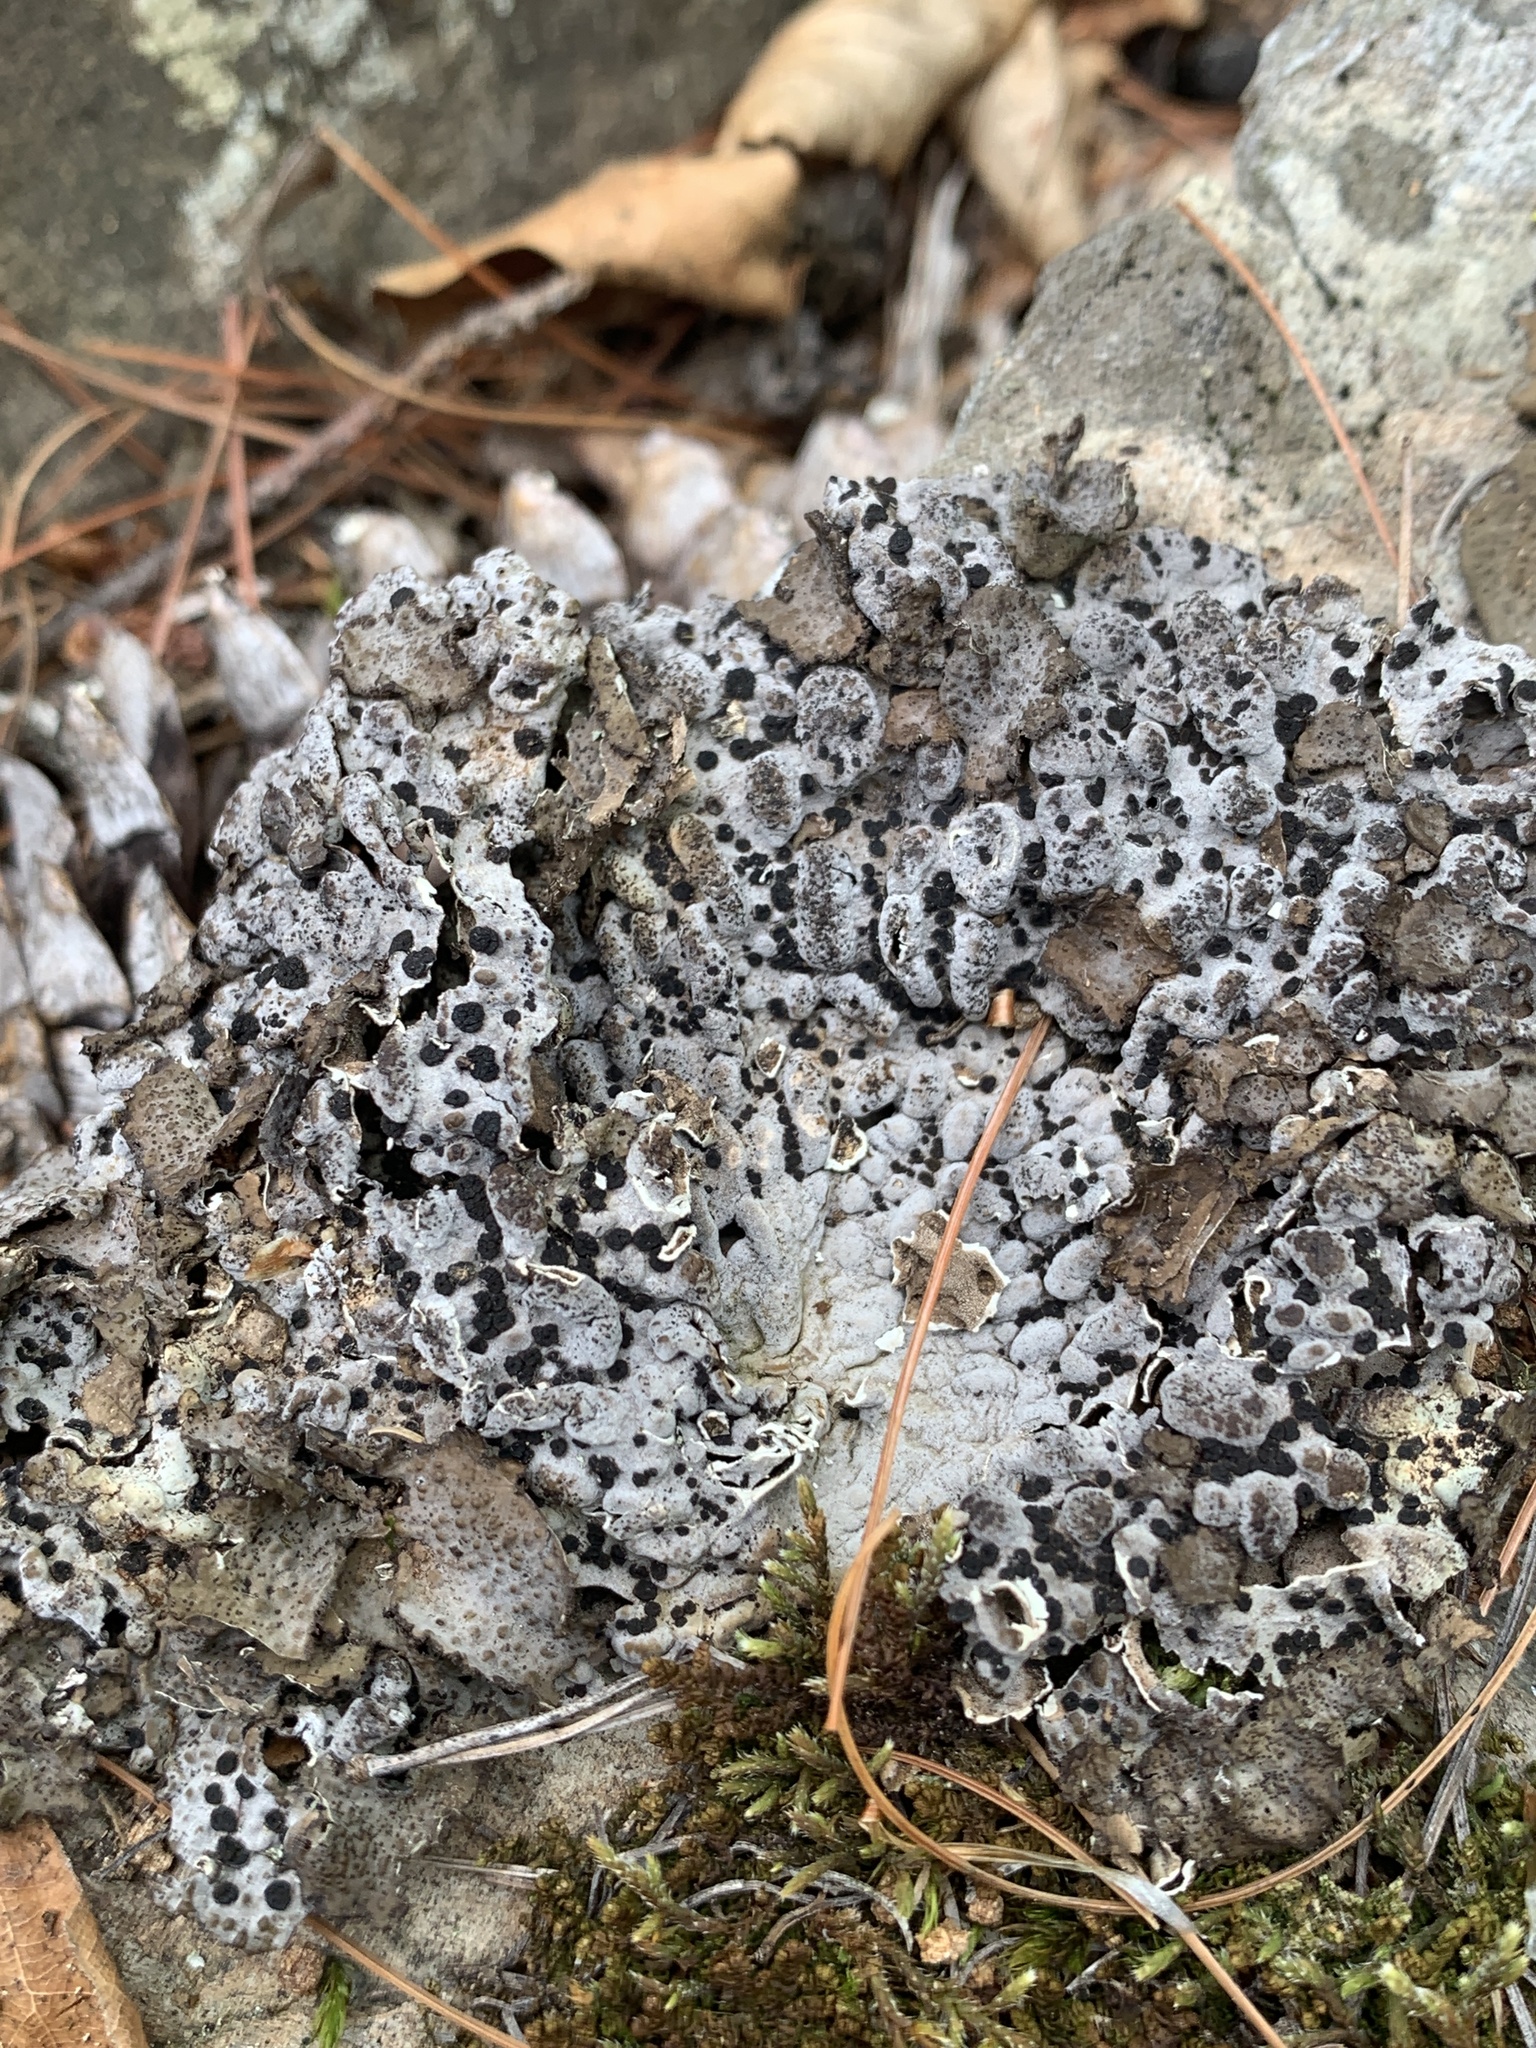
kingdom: Fungi
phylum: Ascomycota
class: Lecanoromycetes
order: Umbilicariales
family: Umbilicariaceae
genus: Lasallia
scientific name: Lasallia papulosa
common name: Common toadskin lichen
